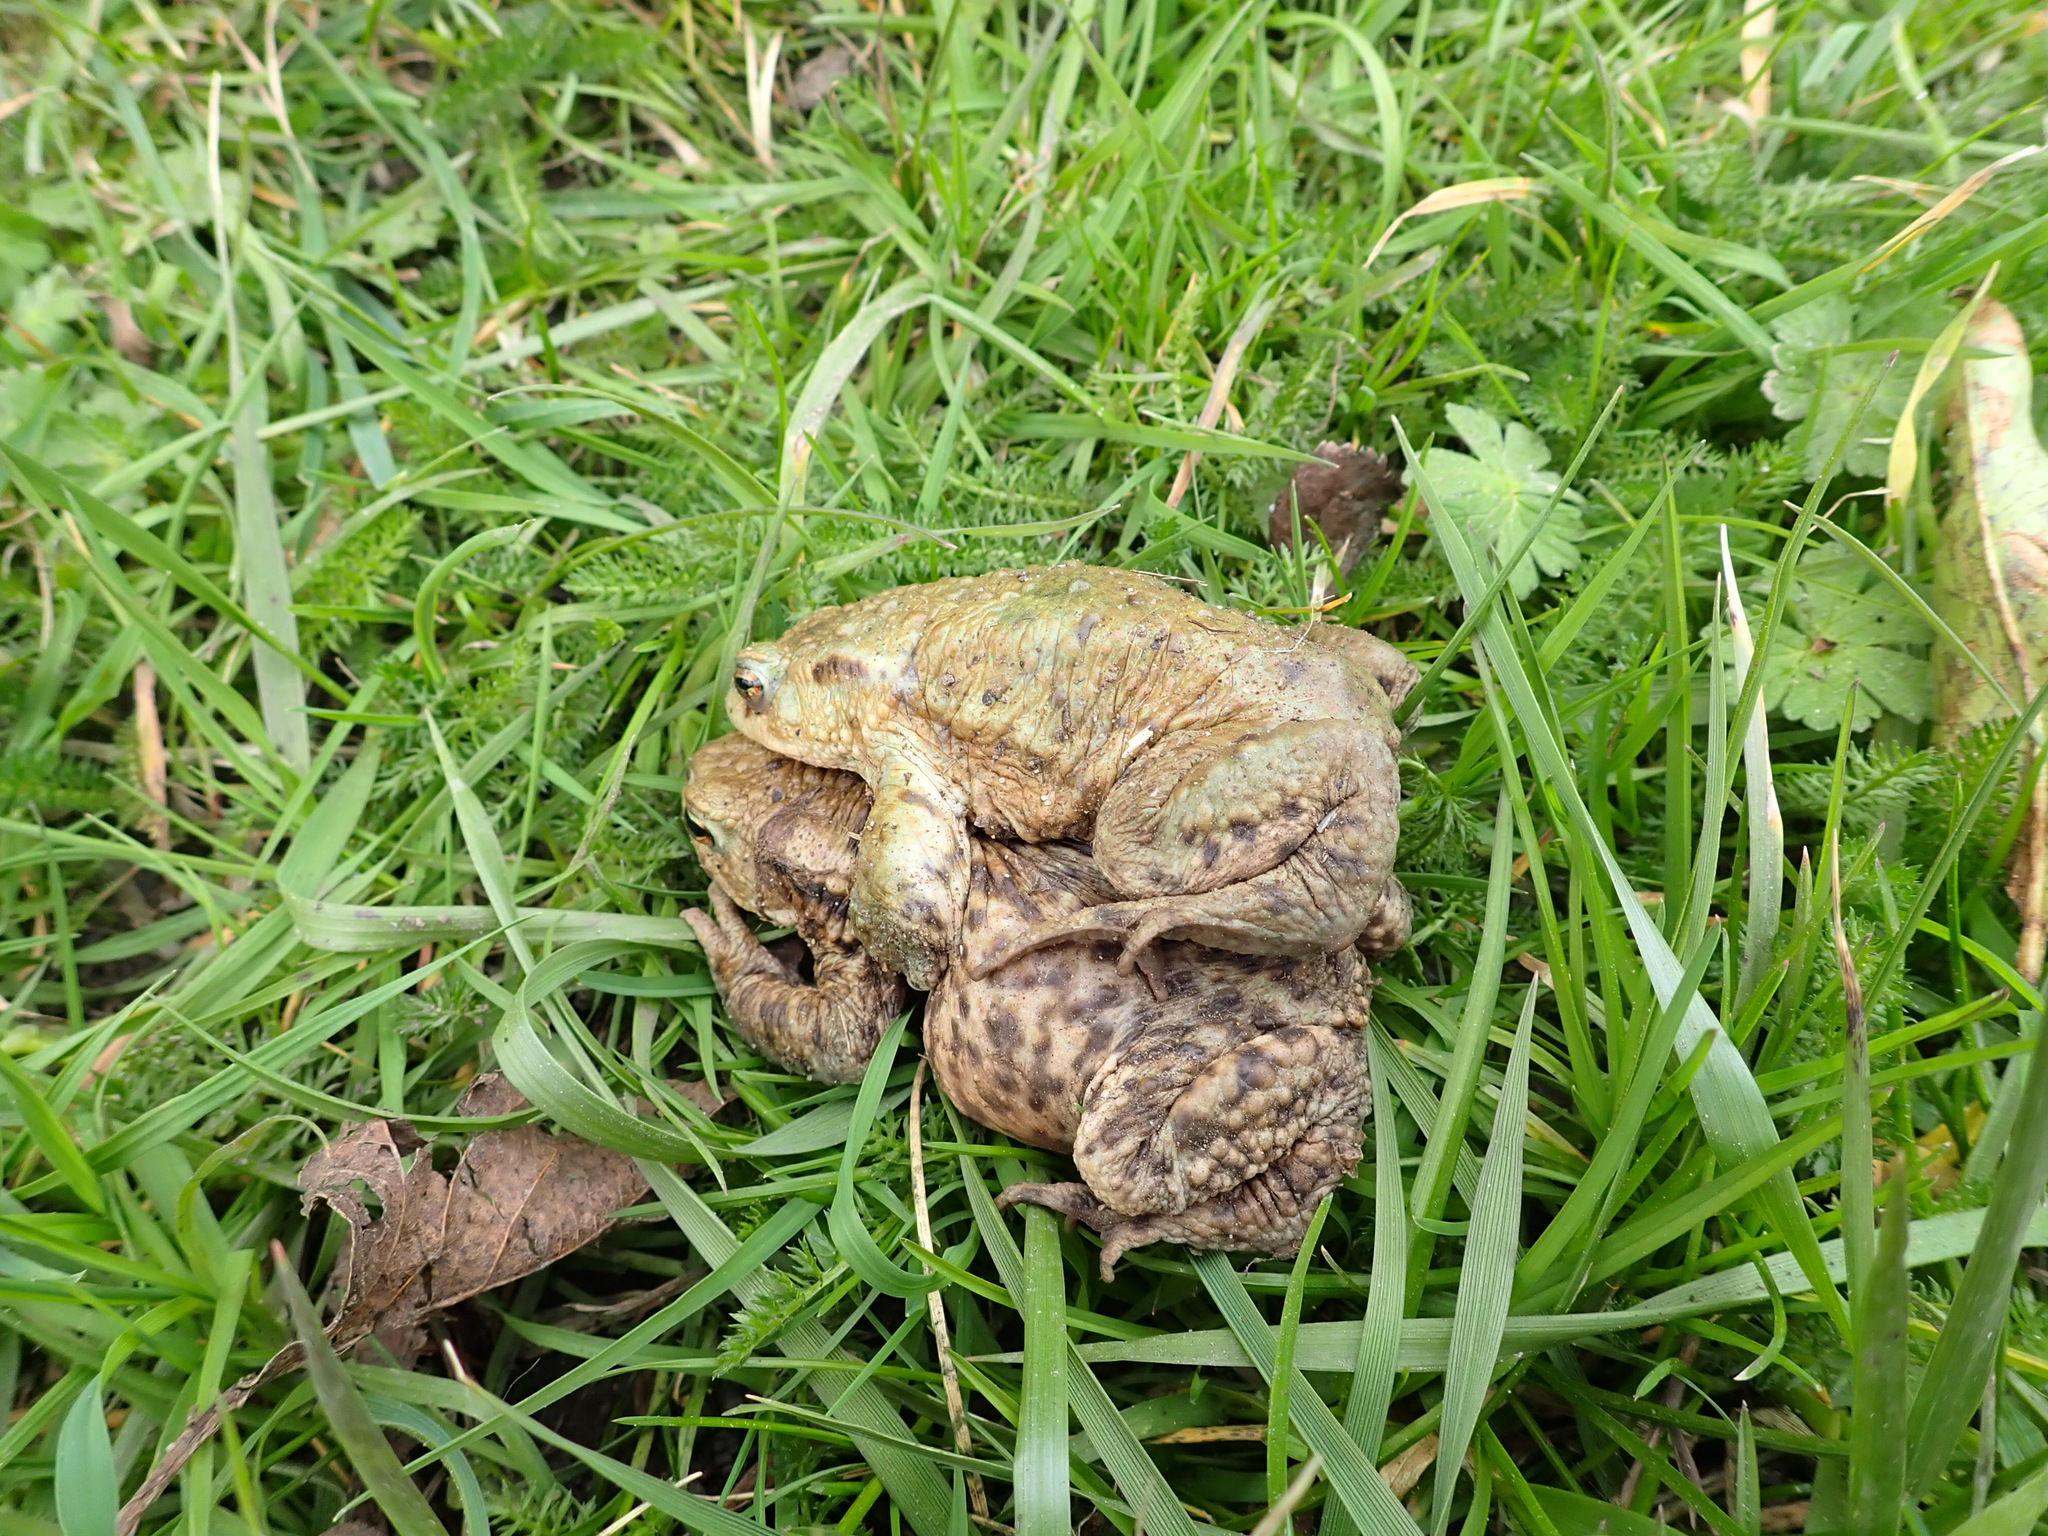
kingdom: Animalia
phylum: Chordata
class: Amphibia
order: Anura
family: Bufonidae
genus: Bufo
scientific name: Bufo bufo
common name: Common toad
